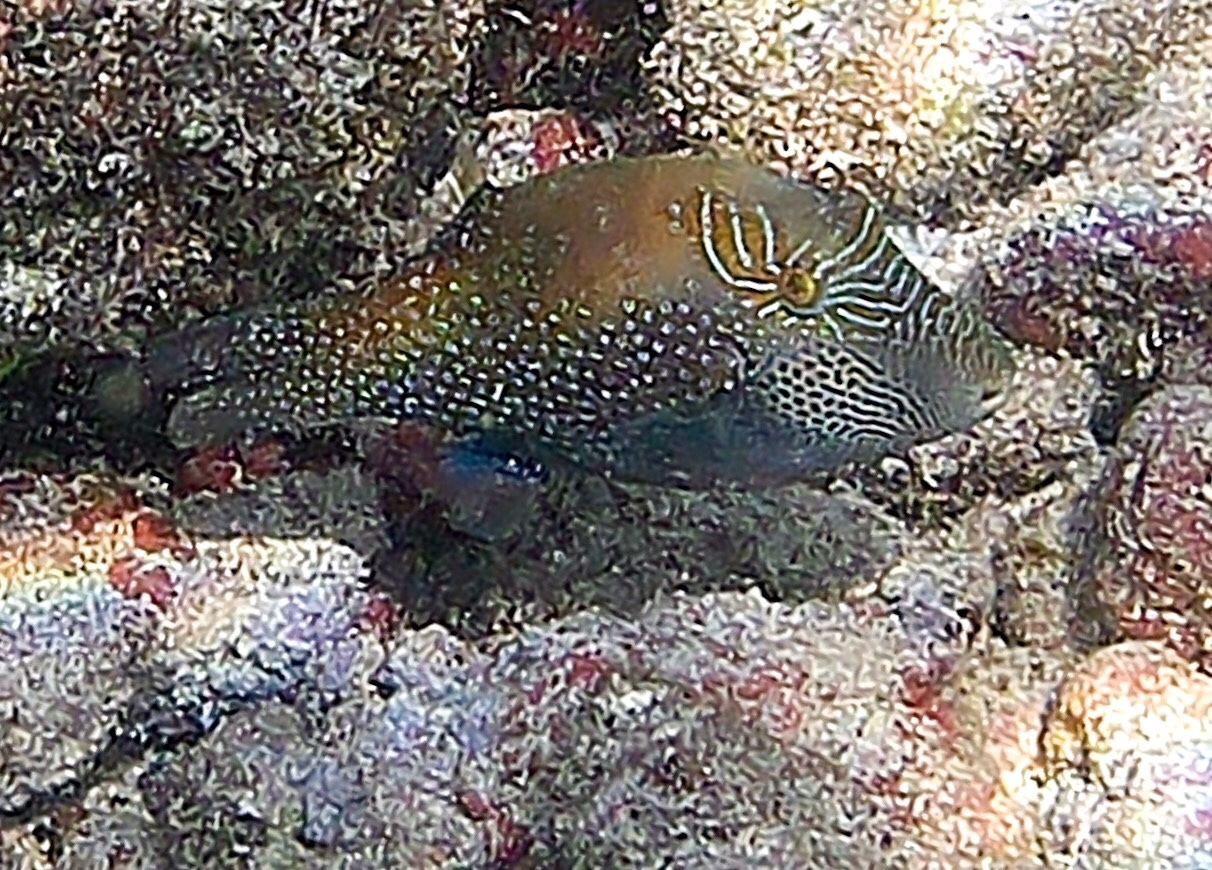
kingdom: Animalia
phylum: Chordata
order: Tetraodontiformes
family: Tetraodontidae
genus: Canthigaster
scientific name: Canthigaster amboinensis
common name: Ambon pufferfish
